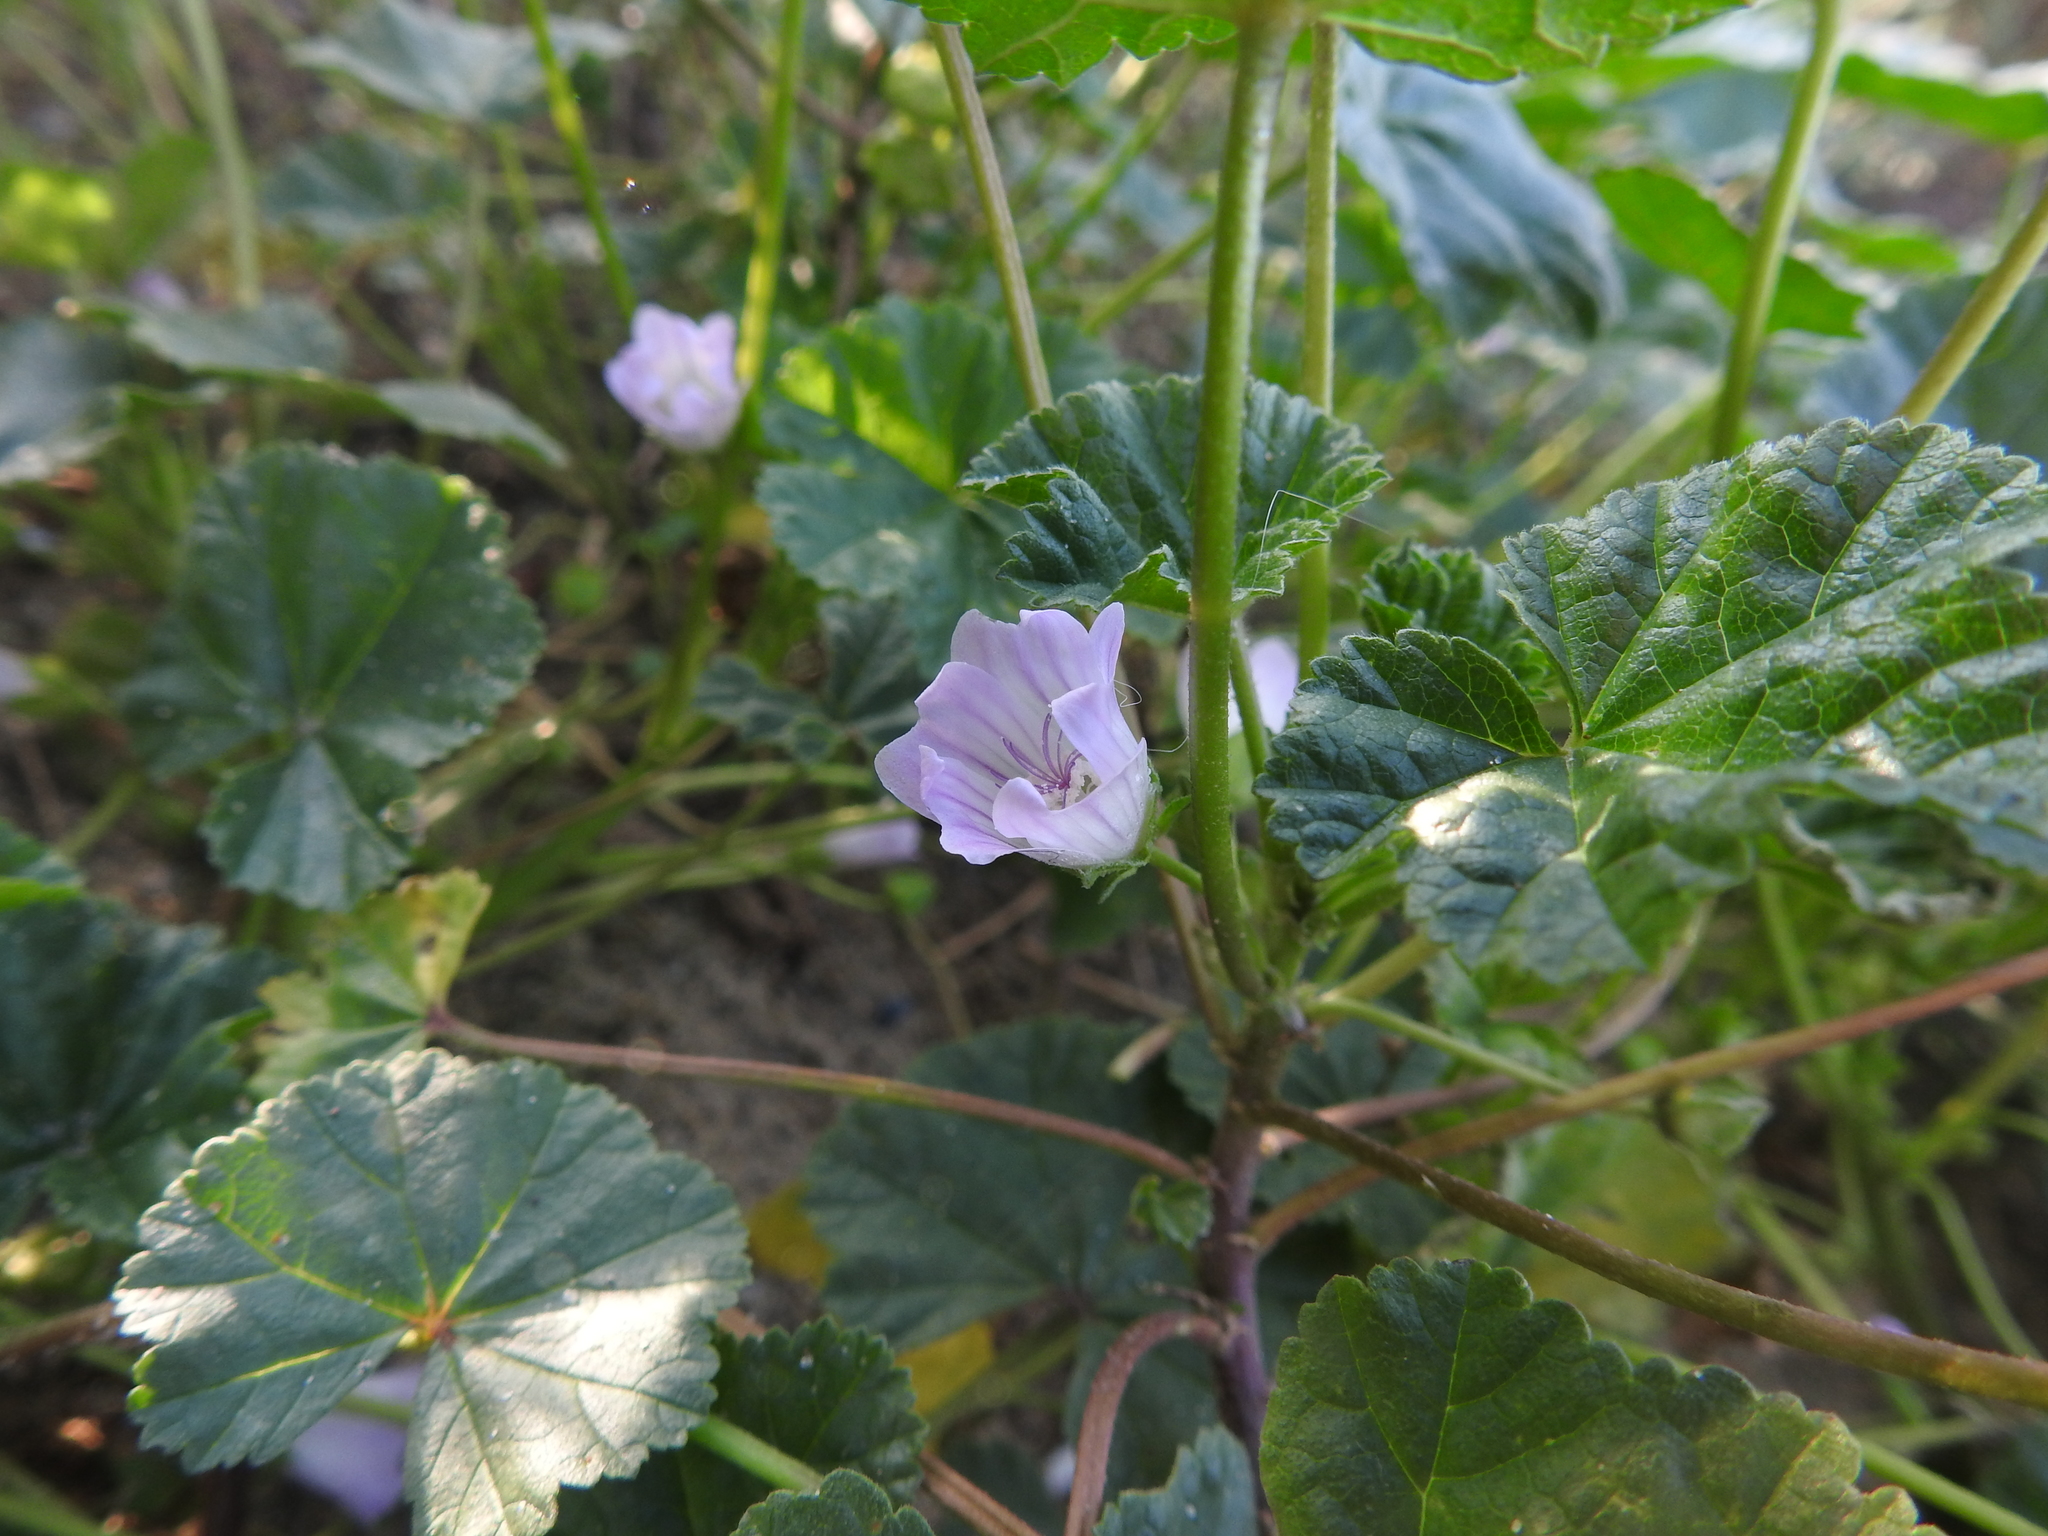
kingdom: Plantae
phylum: Tracheophyta
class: Magnoliopsida
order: Malvales
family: Malvaceae
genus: Malva
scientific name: Malva neglecta
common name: Common mallow
